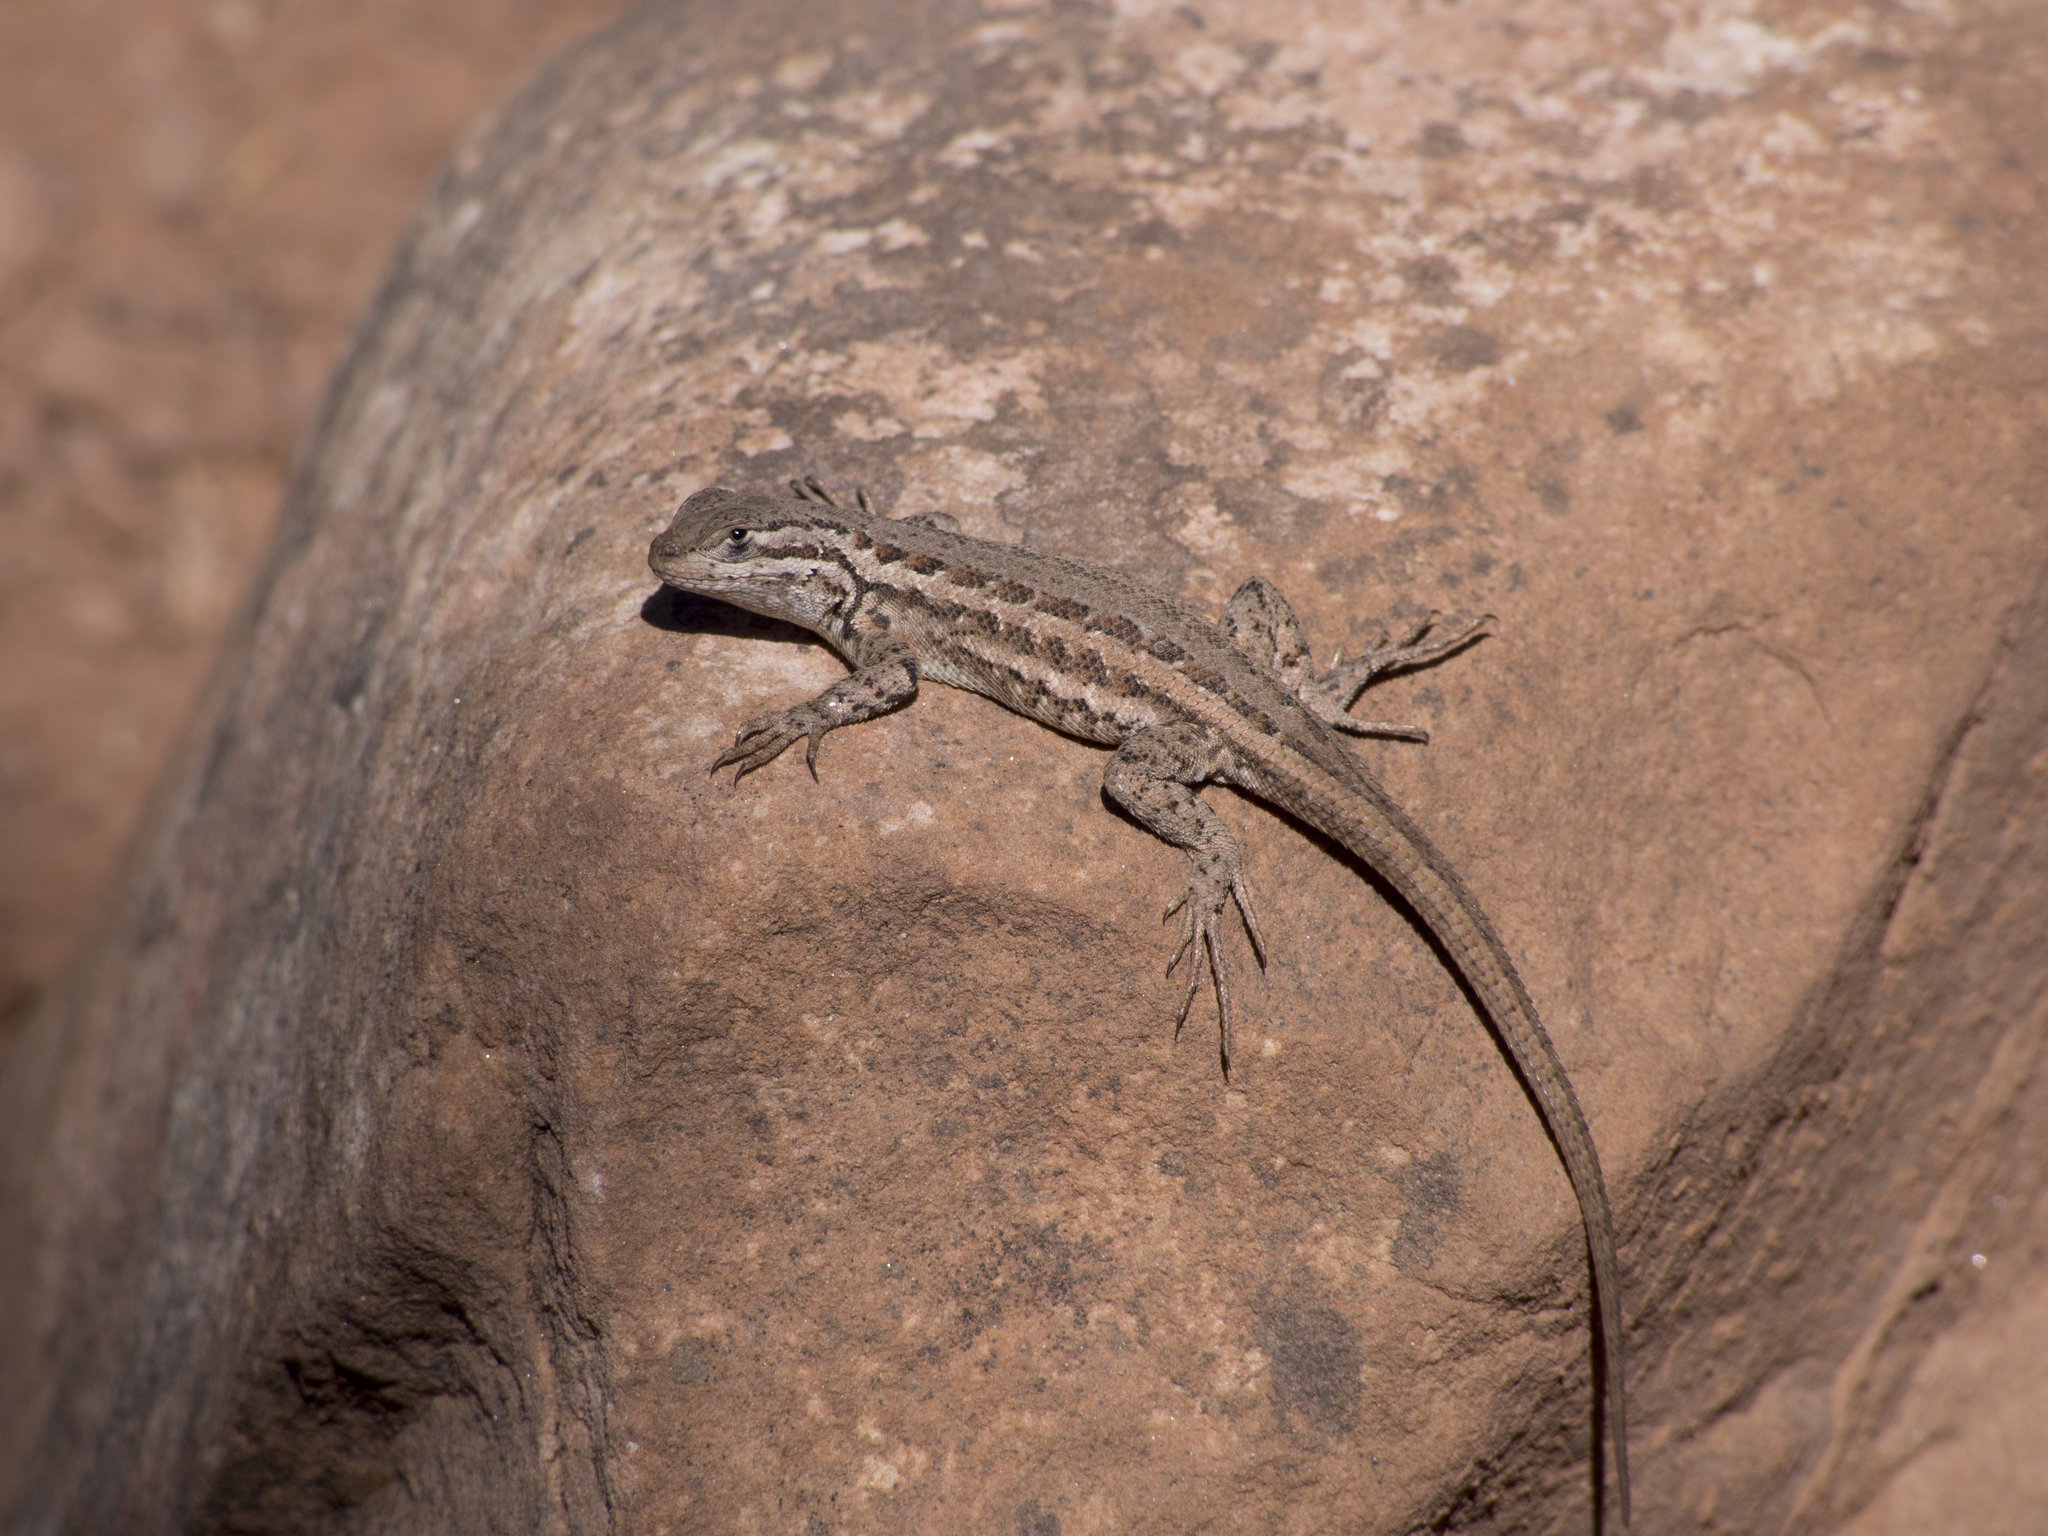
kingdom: Animalia
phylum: Chordata
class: Squamata
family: Phrynosomatidae
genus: Sceloporus
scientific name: Sceloporus graciosus
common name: Sagebrush lizard
